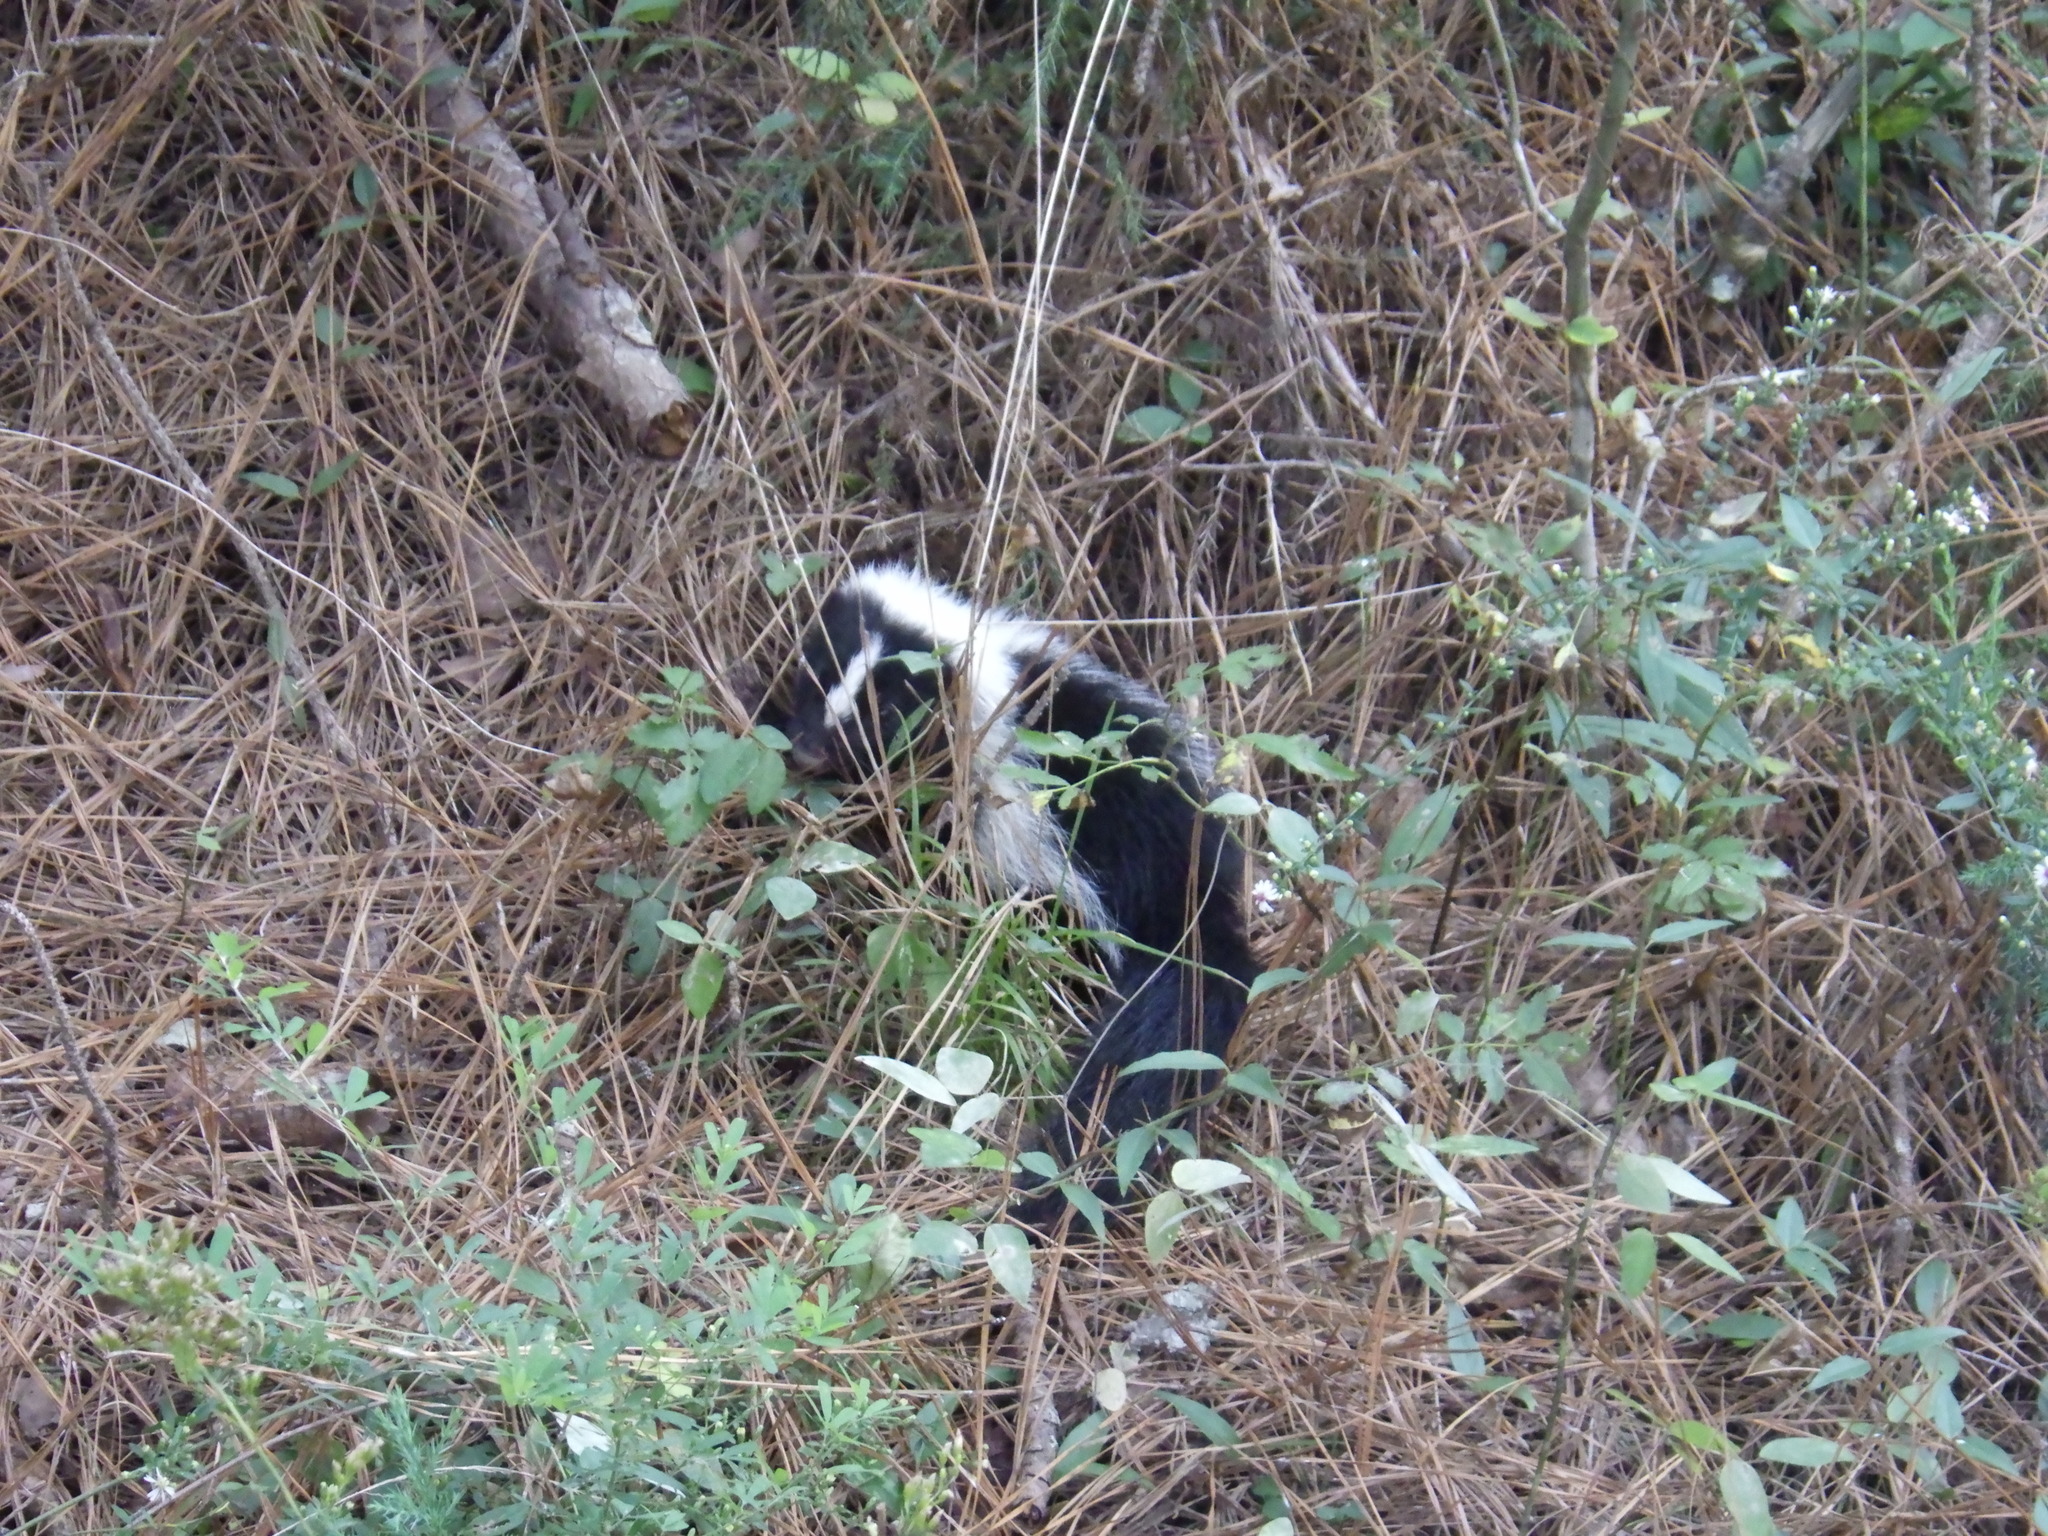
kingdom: Animalia
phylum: Chordata
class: Mammalia
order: Carnivora
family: Mephitidae
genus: Mephitis
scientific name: Mephitis mephitis
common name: Striped skunk
